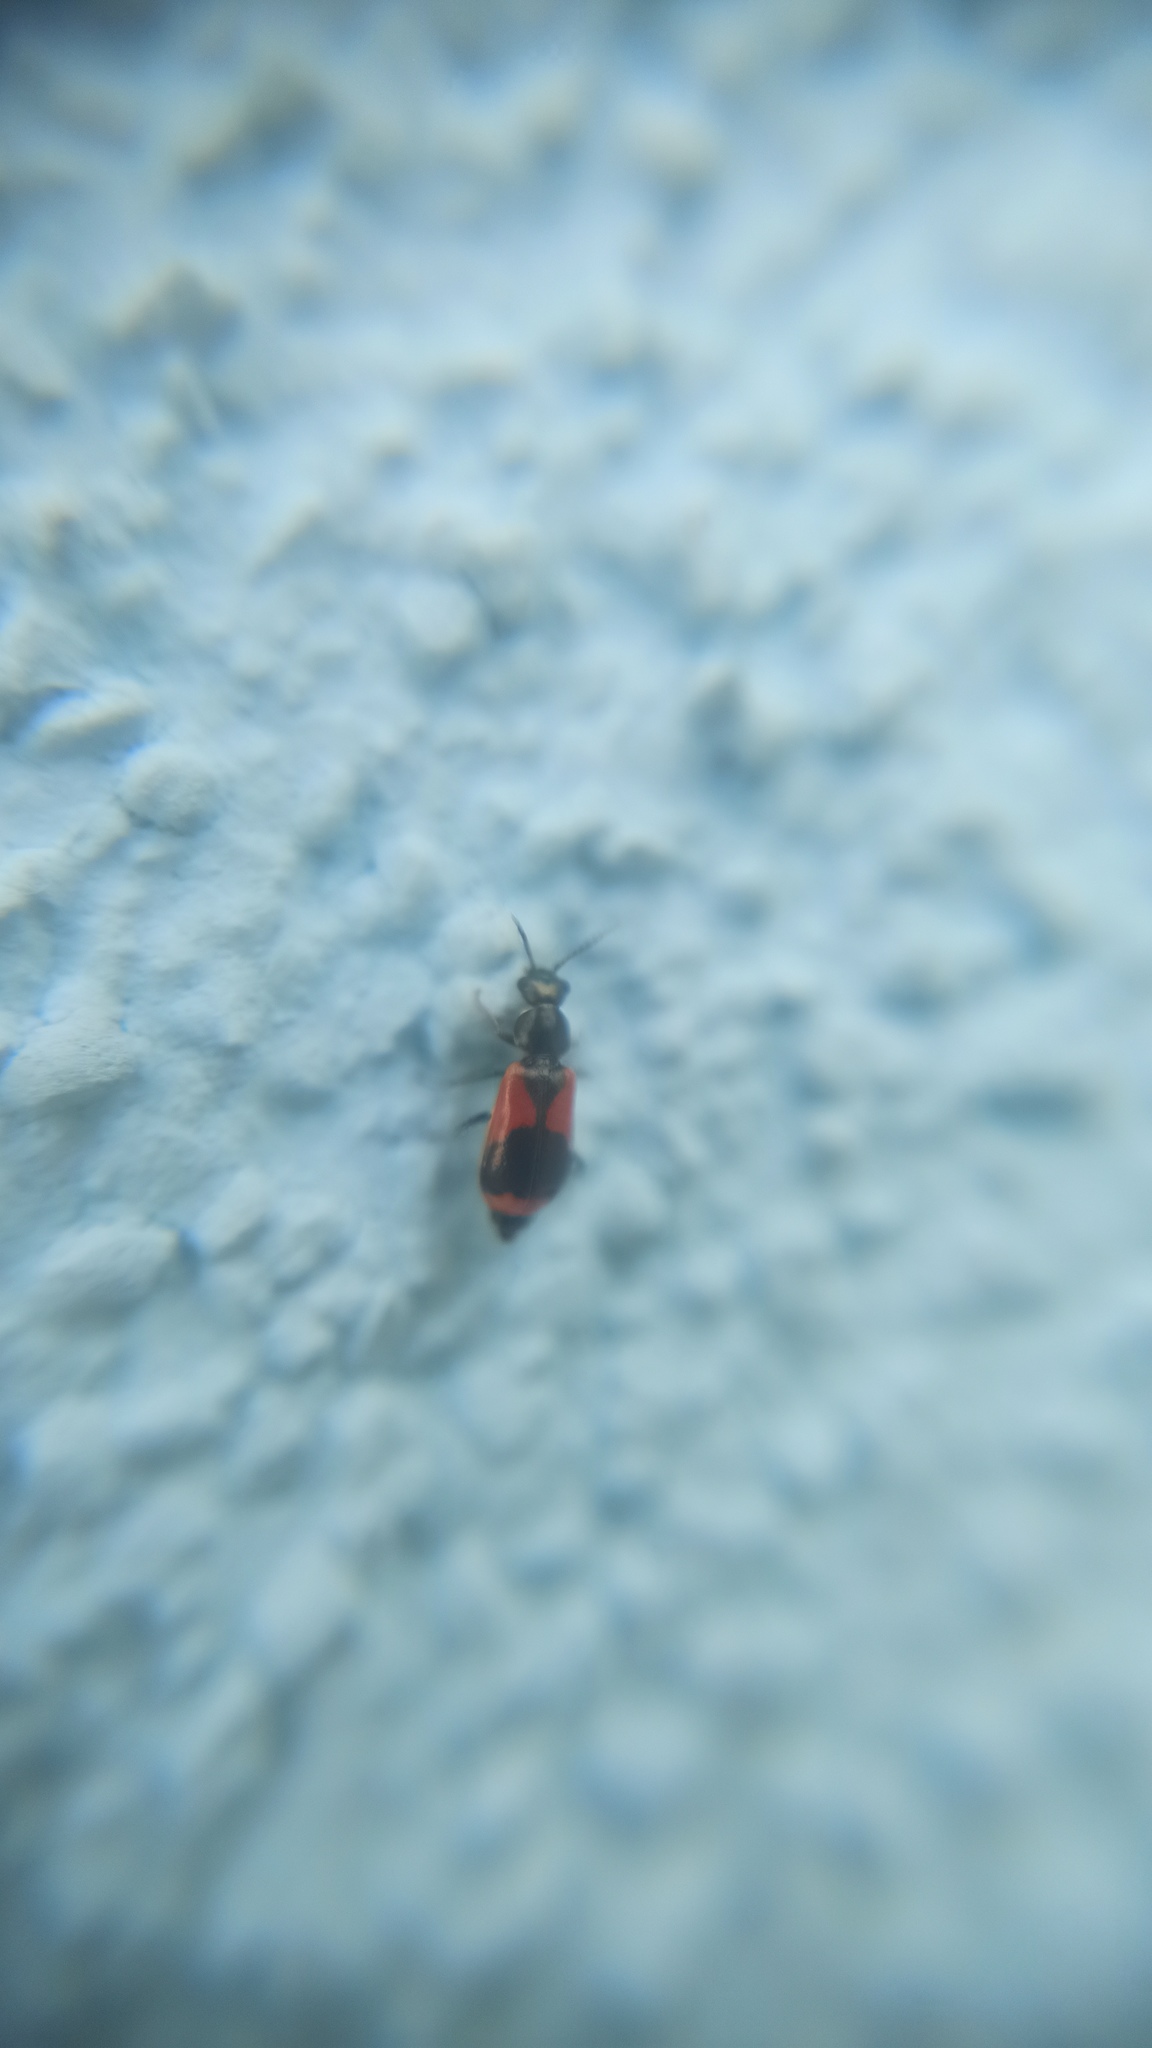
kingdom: Animalia
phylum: Arthropoda
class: Insecta
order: Coleoptera
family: Melyridae
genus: Anthocomus
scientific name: Anthocomus equestris
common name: Black-banded soft-winged flower beetle
